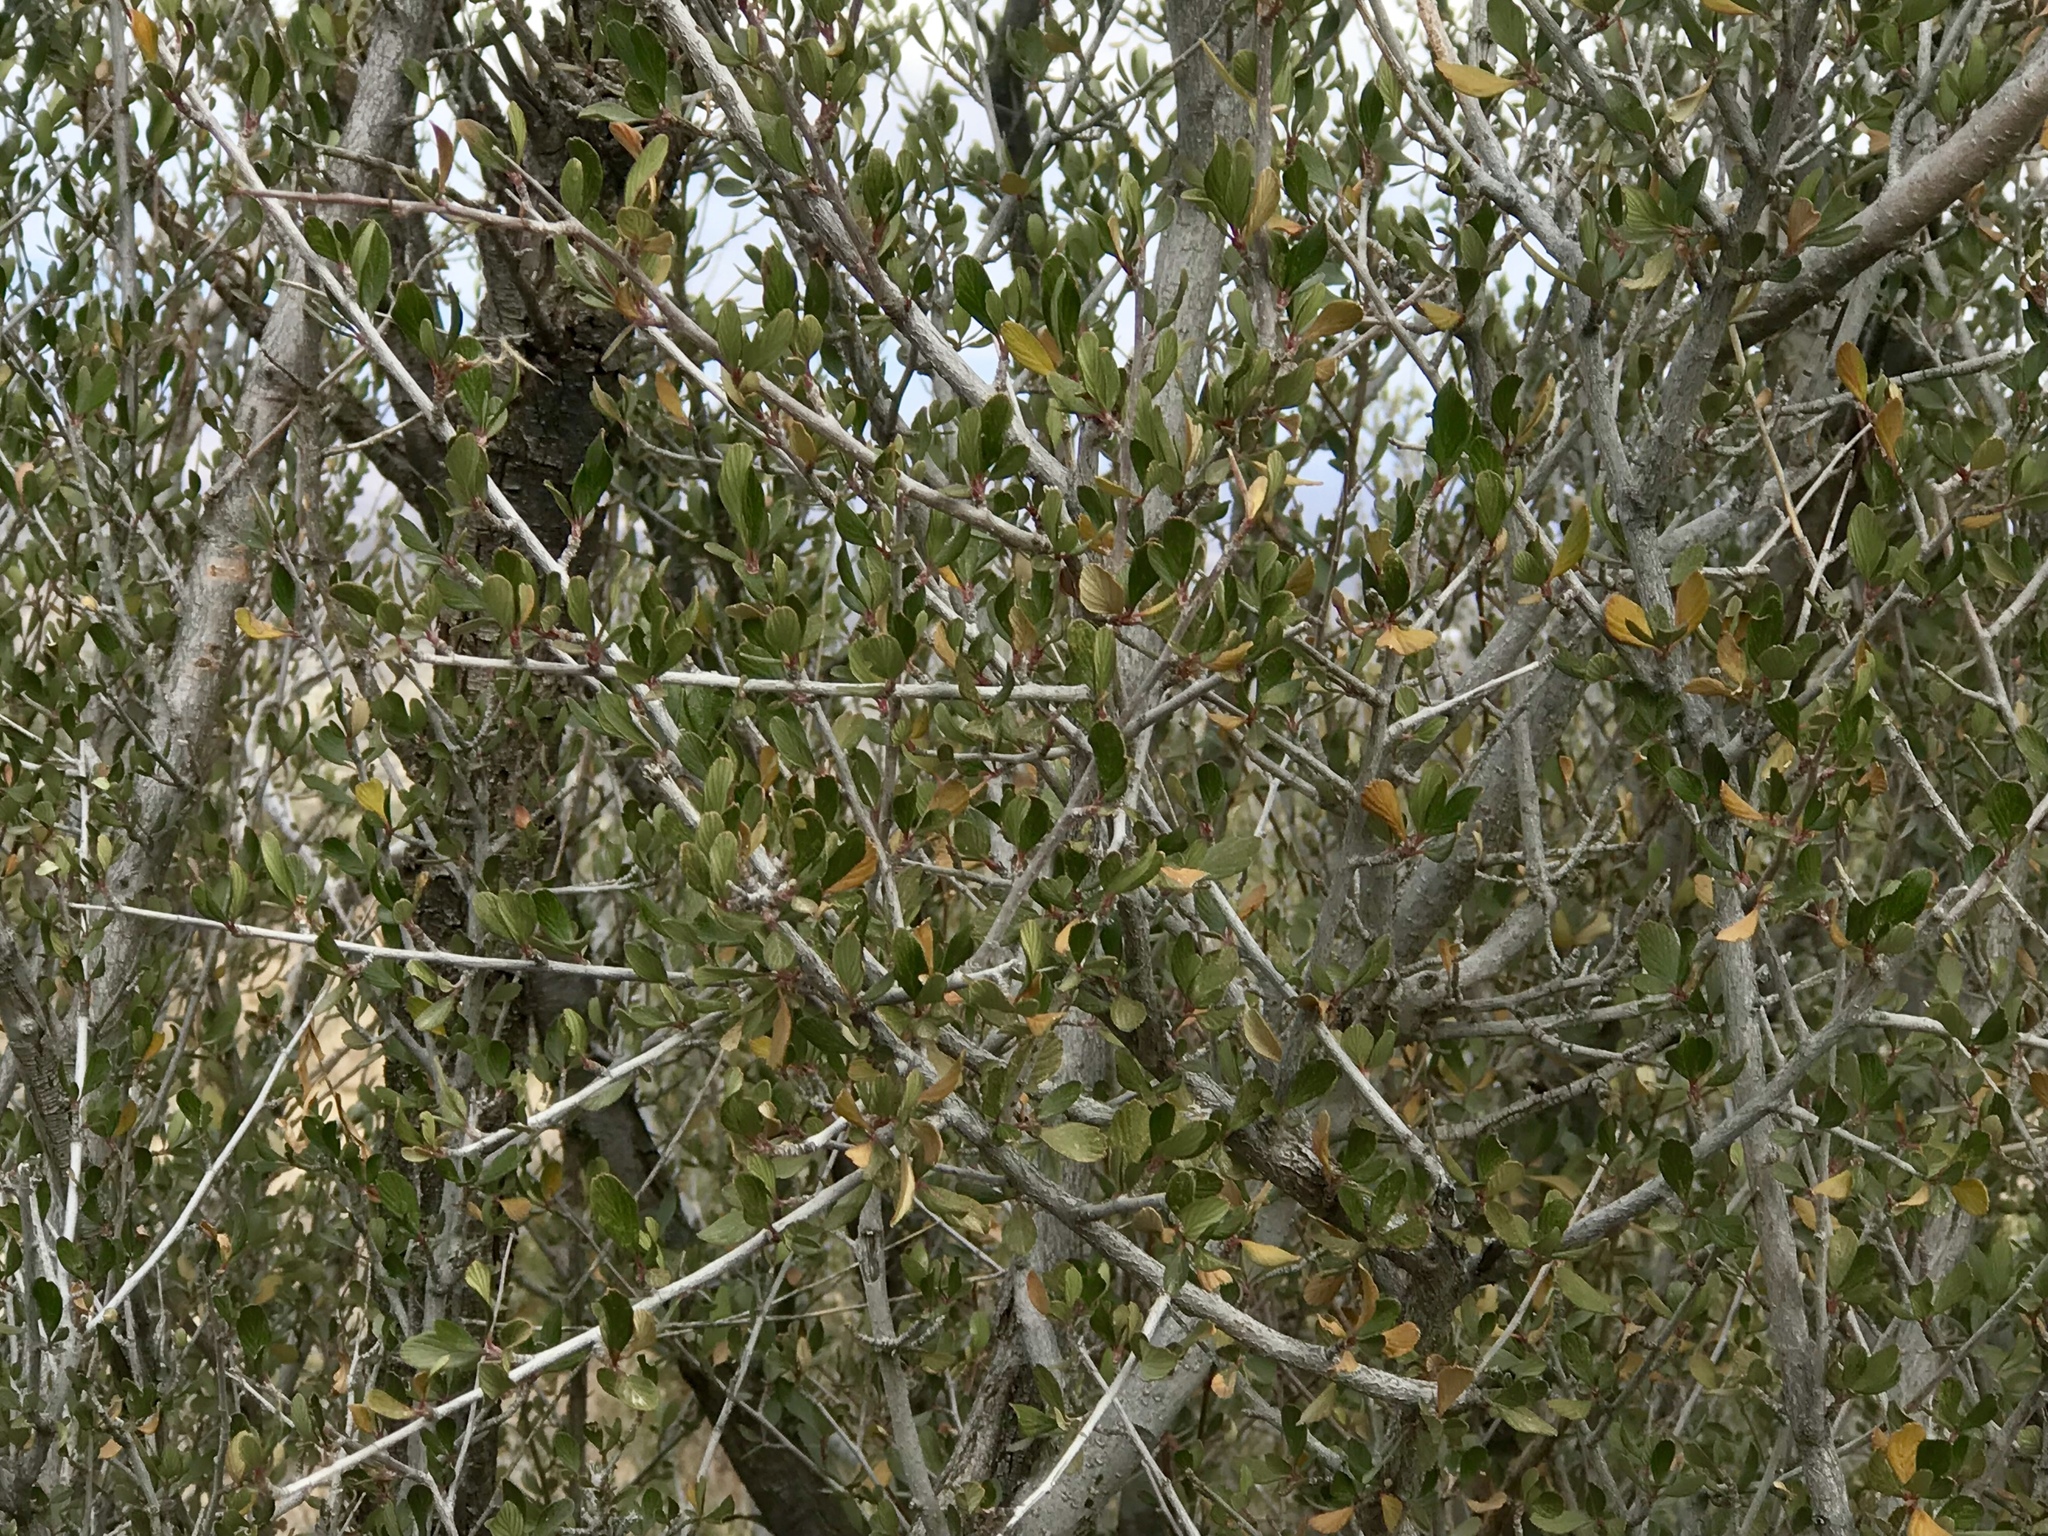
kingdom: Plantae
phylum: Tracheophyta
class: Magnoliopsida
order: Rosales
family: Rosaceae
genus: Cercocarpus
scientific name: Cercocarpus breviflorus
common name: Wright's mountain-mahogany
